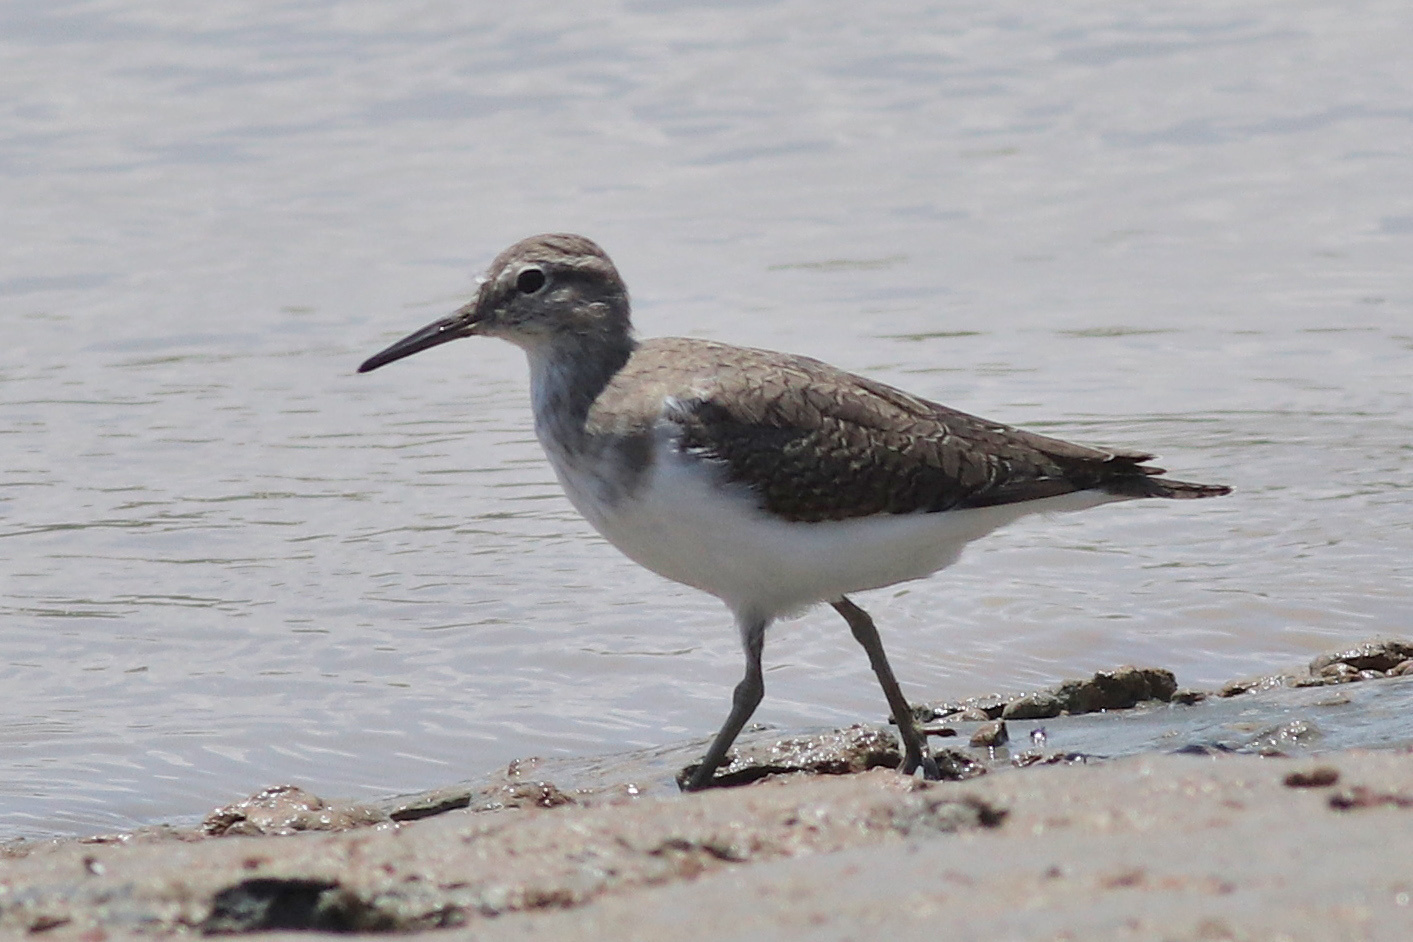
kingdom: Animalia
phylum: Chordata
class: Aves
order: Charadriiformes
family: Scolopacidae
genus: Actitis
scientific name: Actitis hypoleucos
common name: Common sandpiper
